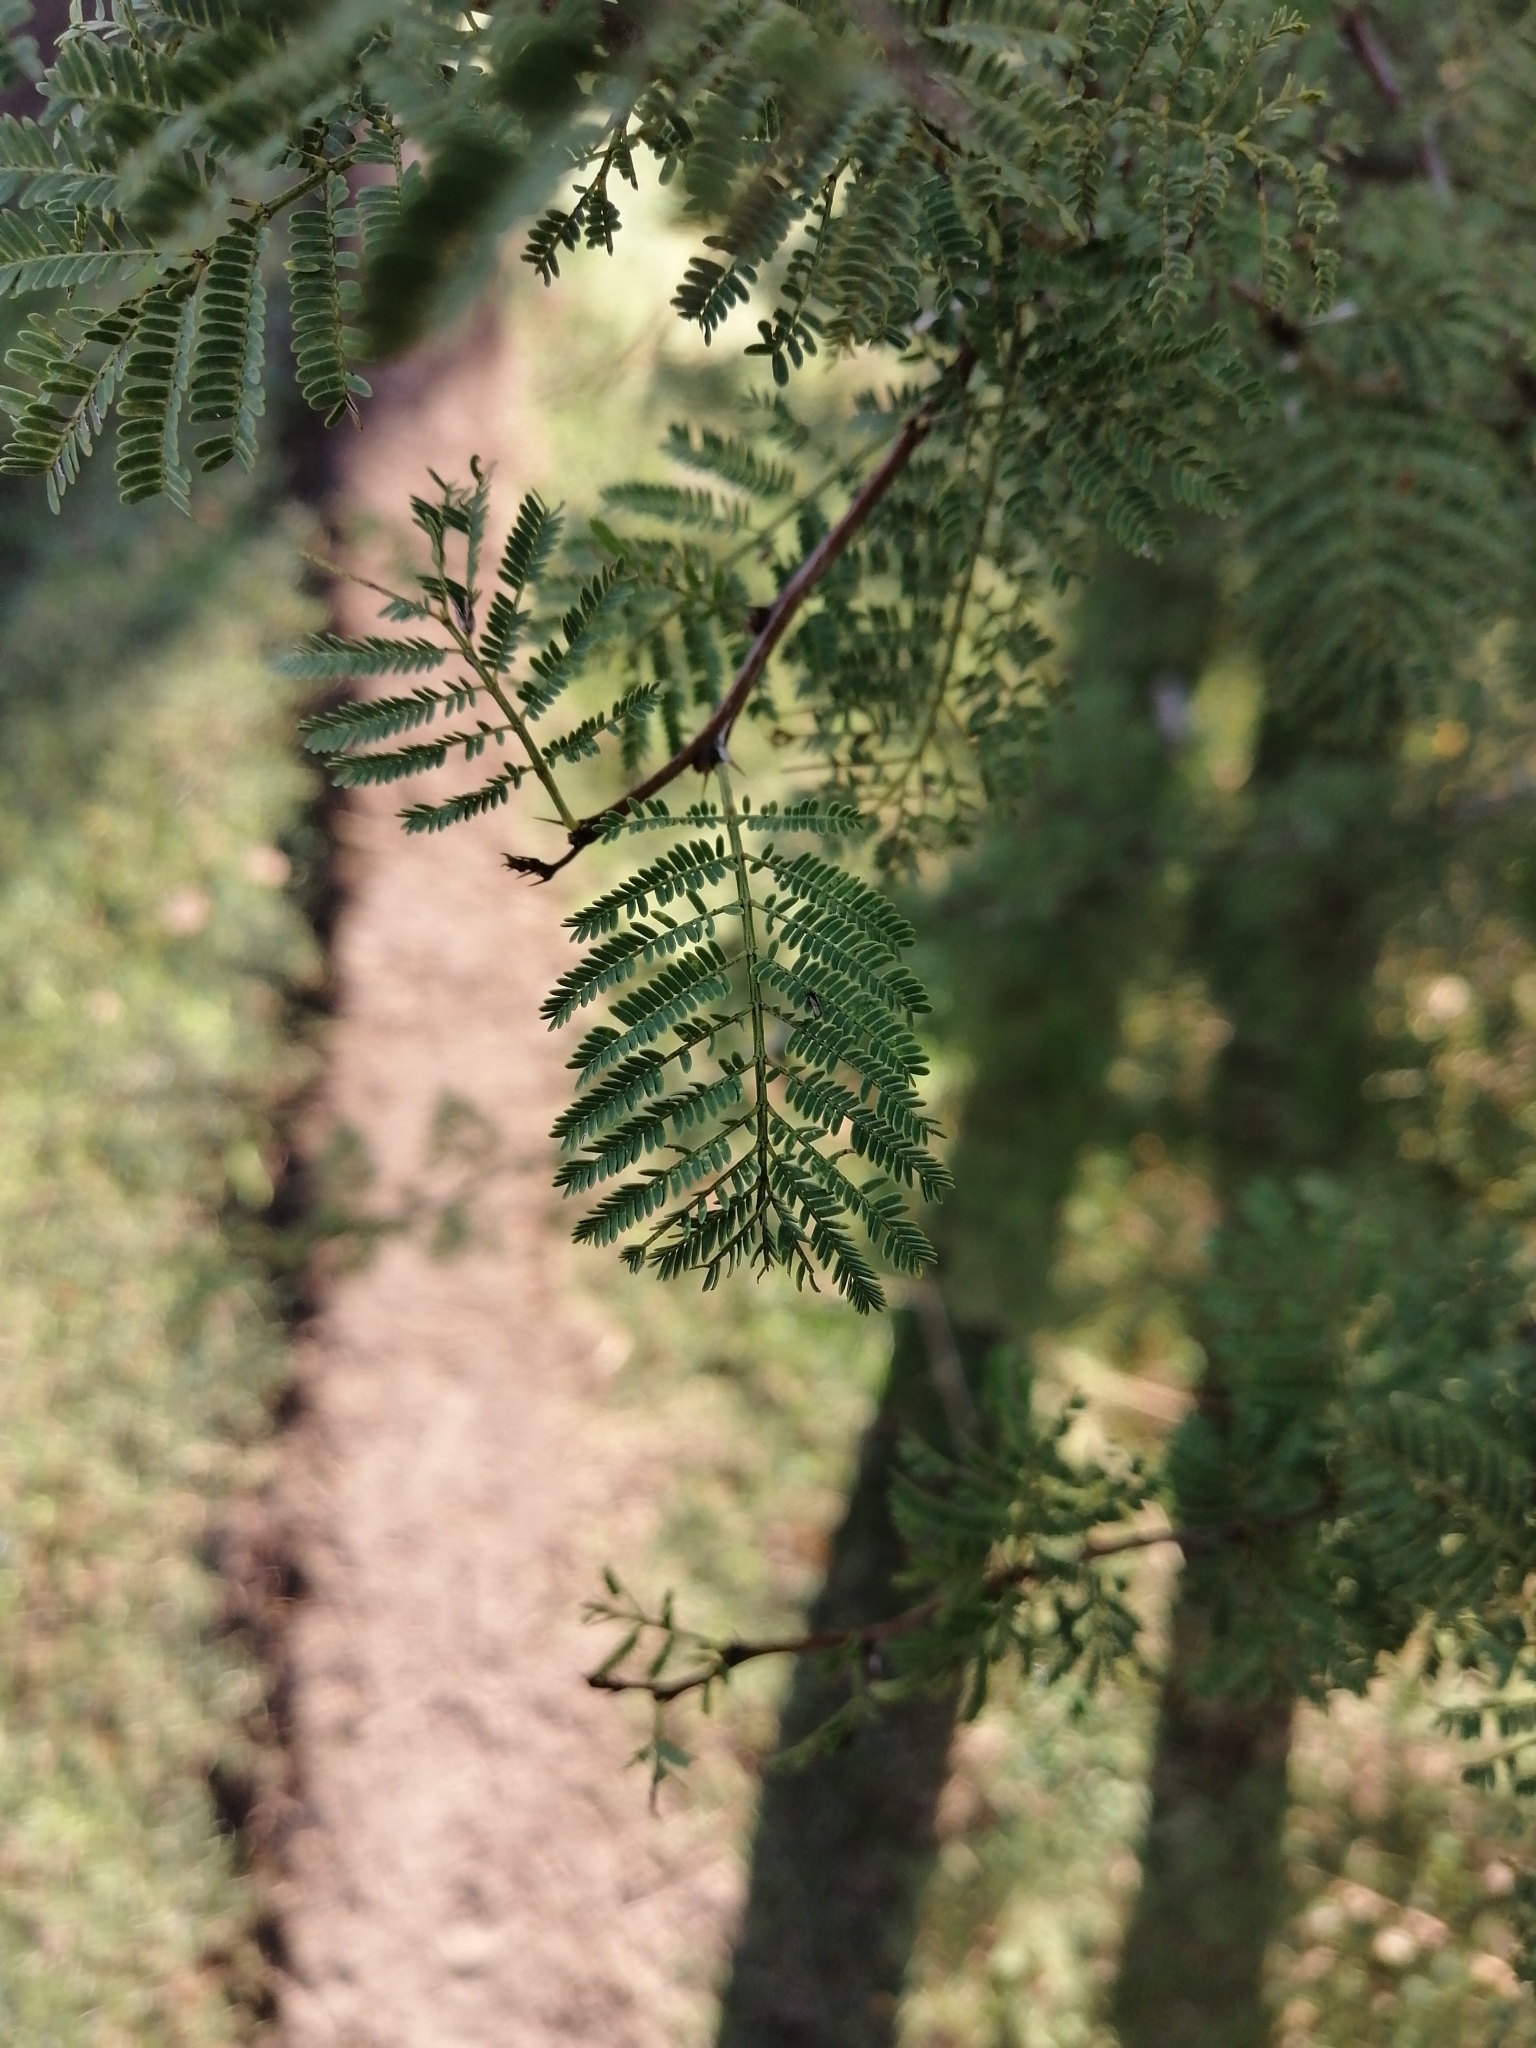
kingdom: Plantae
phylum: Tracheophyta
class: Magnoliopsida
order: Fabales
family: Fabaceae
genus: Vachellia
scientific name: Vachellia caven
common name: Roman cassie
